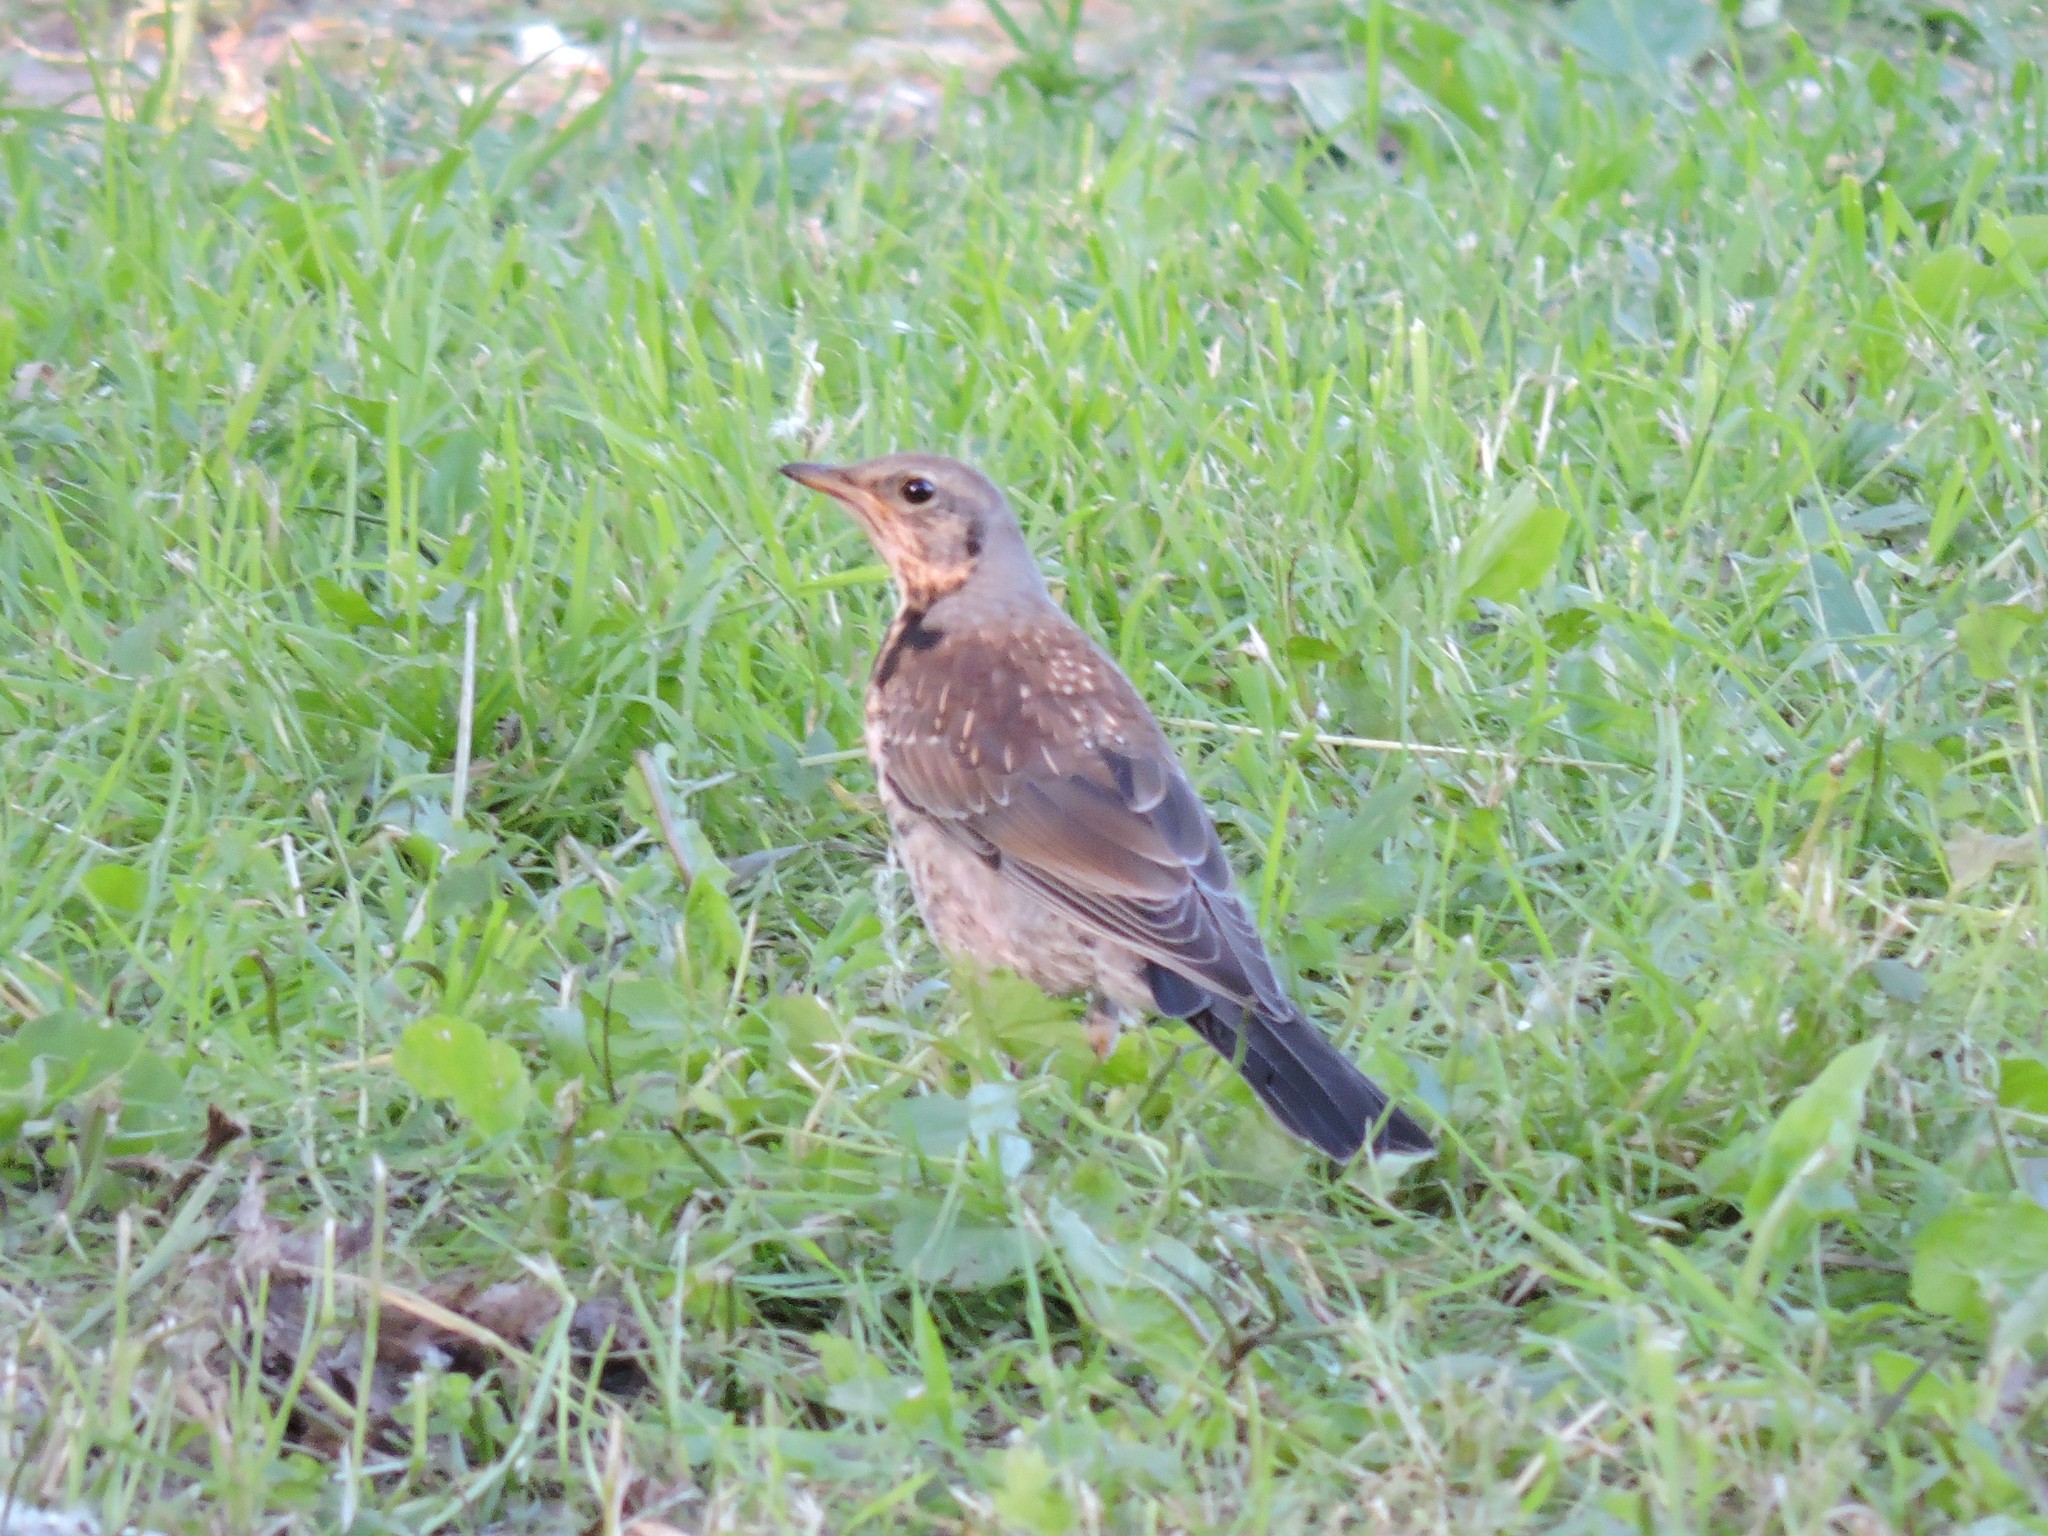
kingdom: Animalia
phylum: Chordata
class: Aves
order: Passeriformes
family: Turdidae
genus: Turdus
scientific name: Turdus pilaris
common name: Fieldfare
